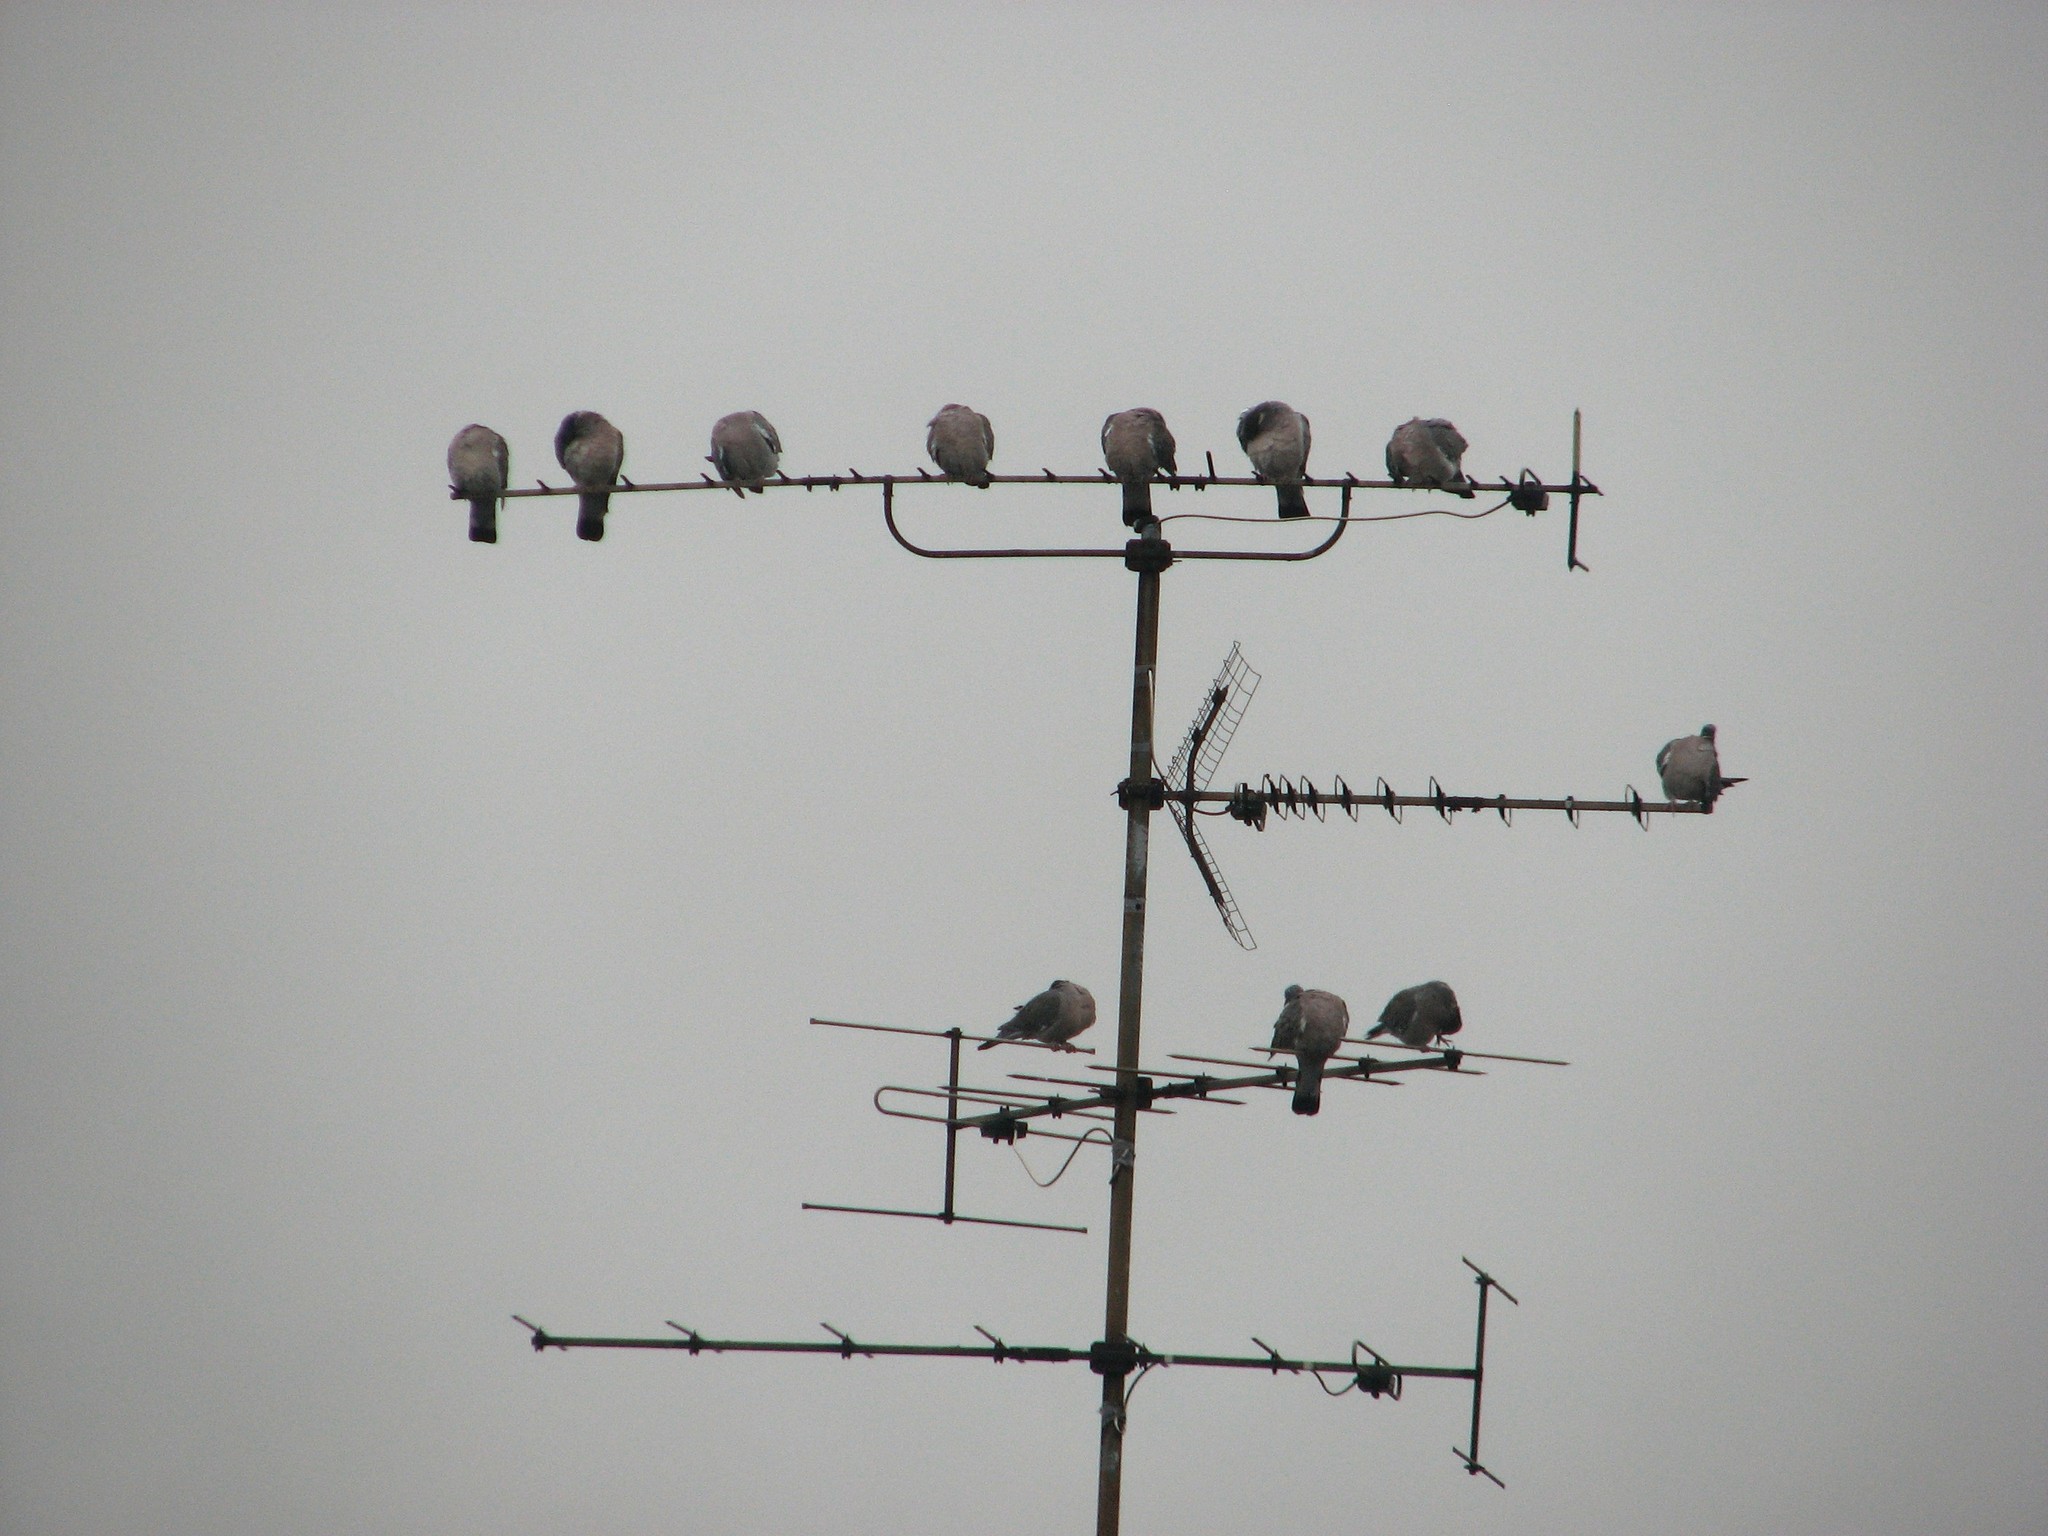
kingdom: Animalia
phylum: Chordata
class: Aves
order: Columbiformes
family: Columbidae
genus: Columba
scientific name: Columba palumbus
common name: Common wood pigeon
